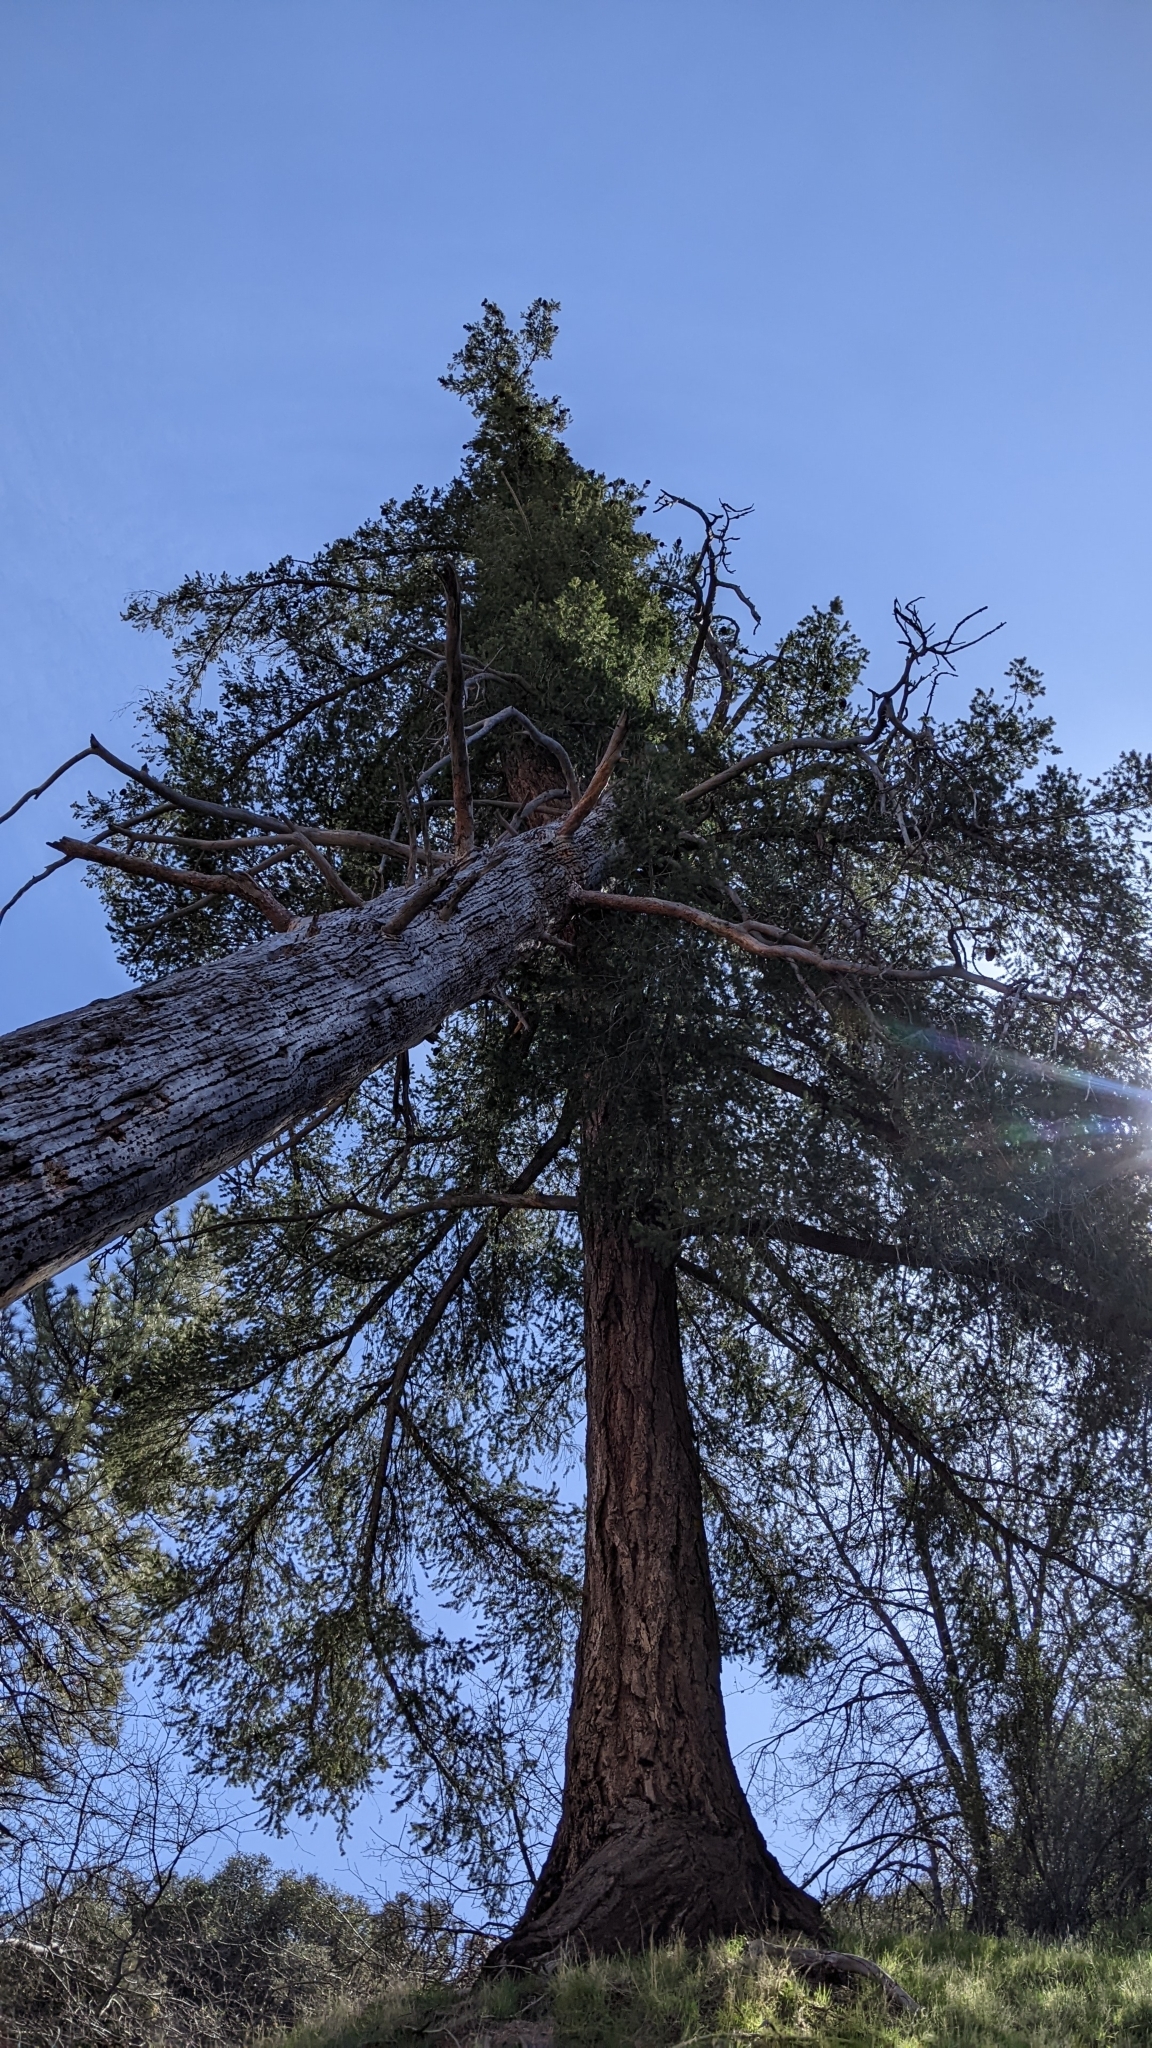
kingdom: Plantae
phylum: Tracheophyta
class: Pinopsida
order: Pinales
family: Pinaceae
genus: Pseudotsuga
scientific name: Pseudotsuga macrocarpa
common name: Big-cone douglas-fir
